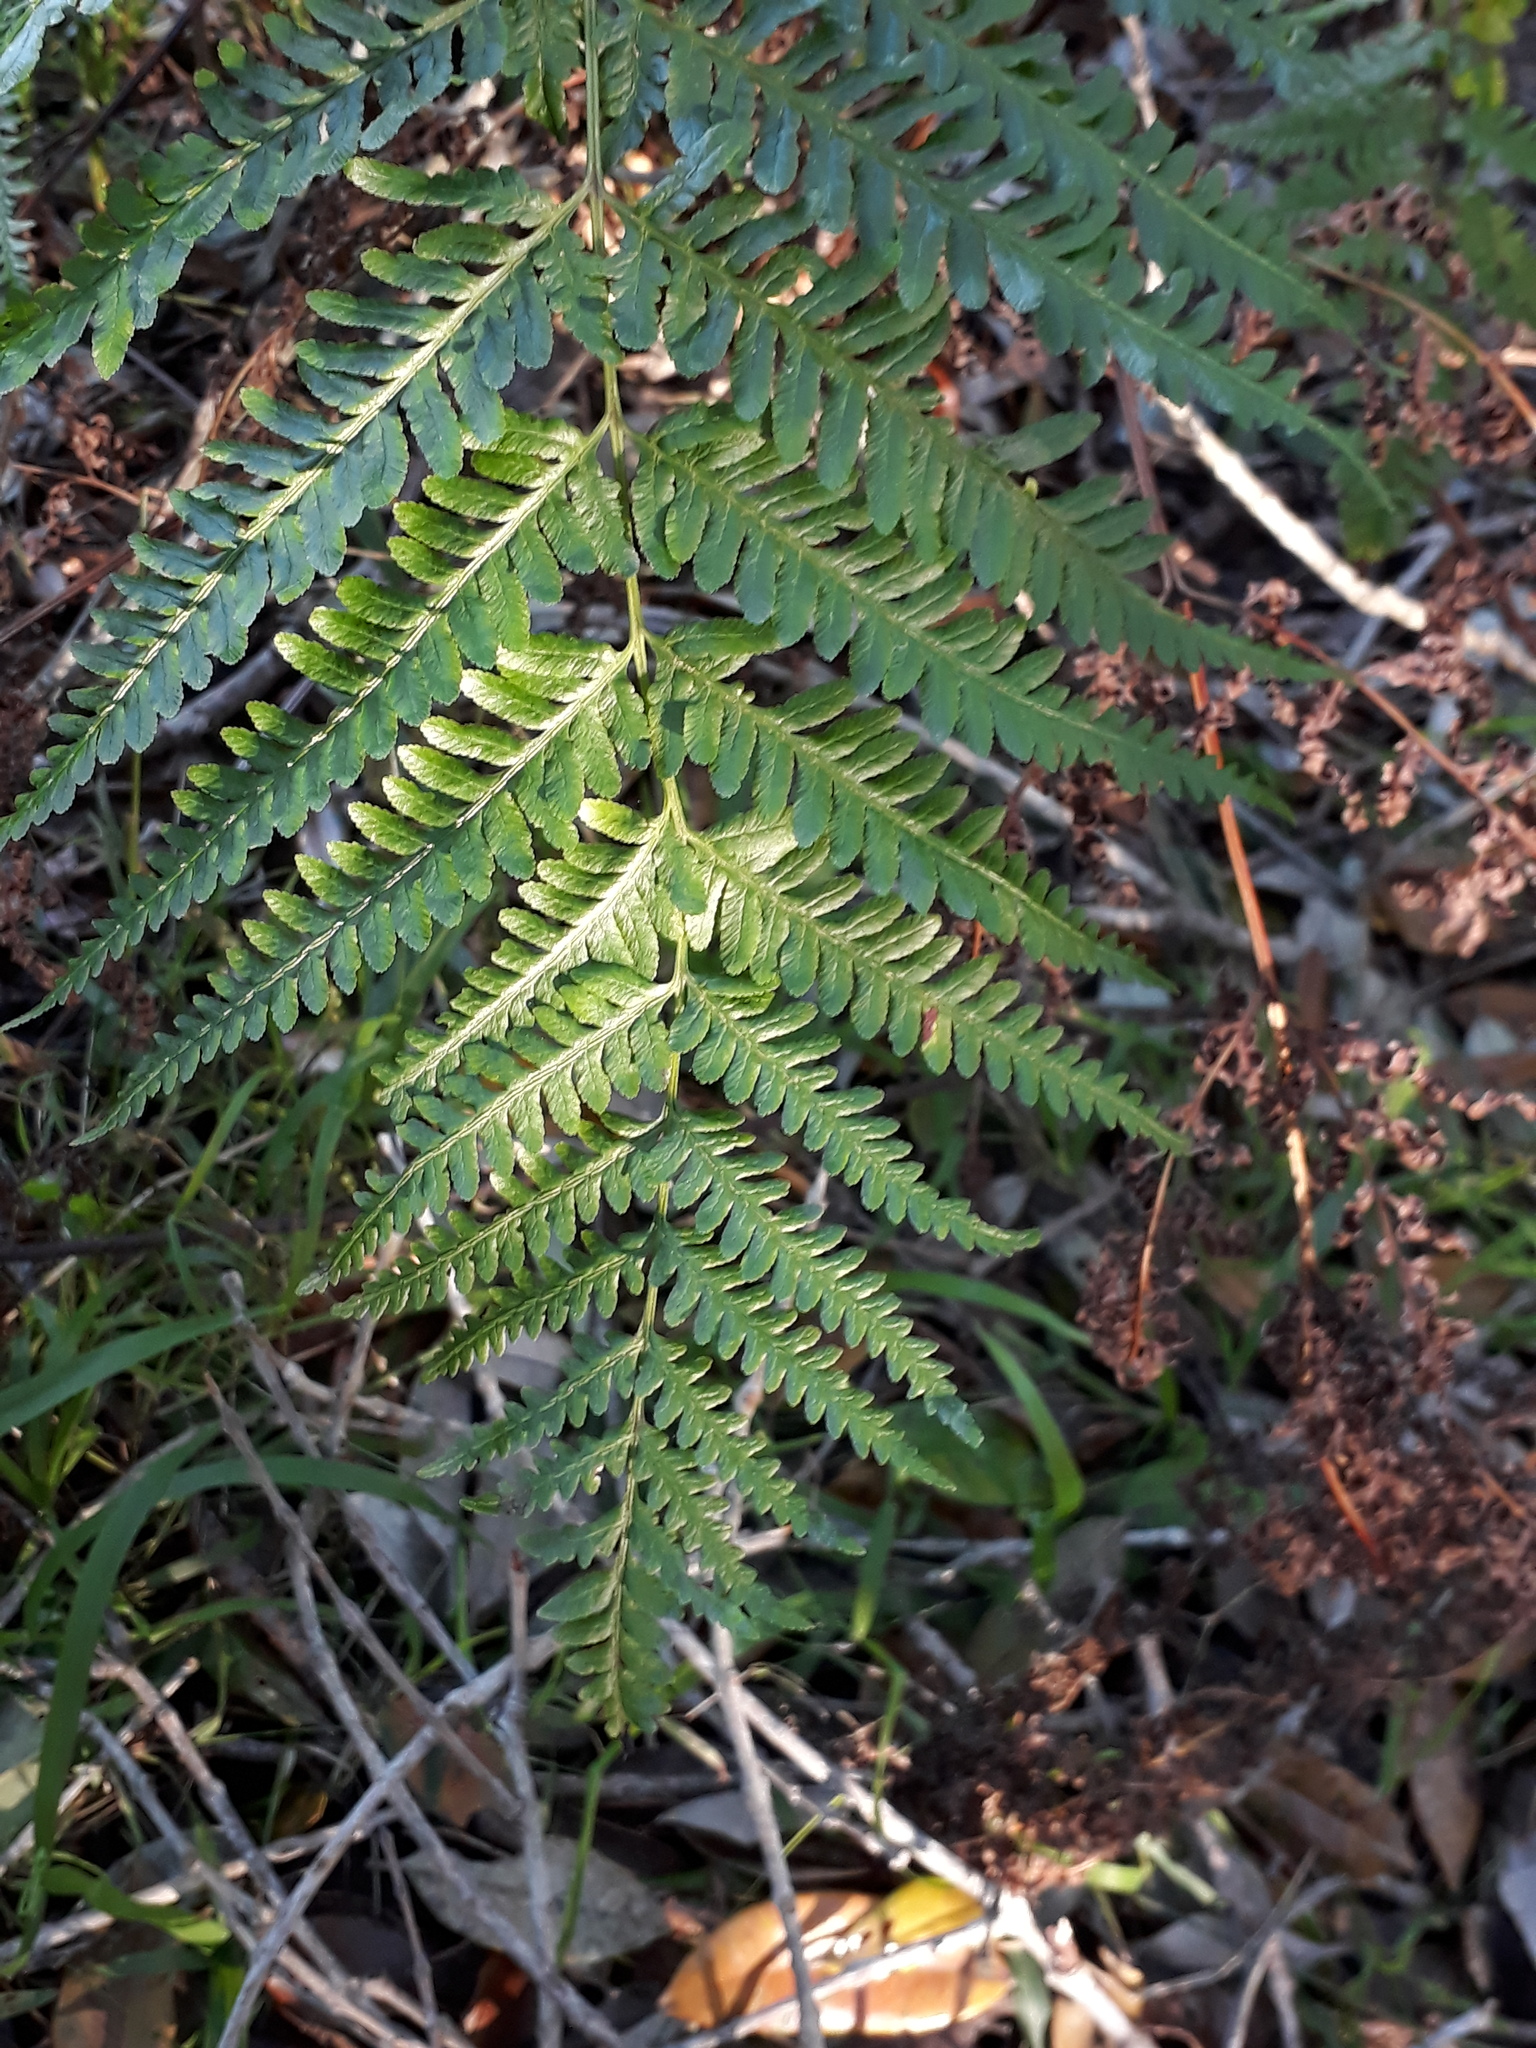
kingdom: Plantae
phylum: Tracheophyta
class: Polypodiopsida
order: Polypodiales
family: Pteridaceae
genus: Pteris
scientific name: Pteris tremula
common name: Australian brake
